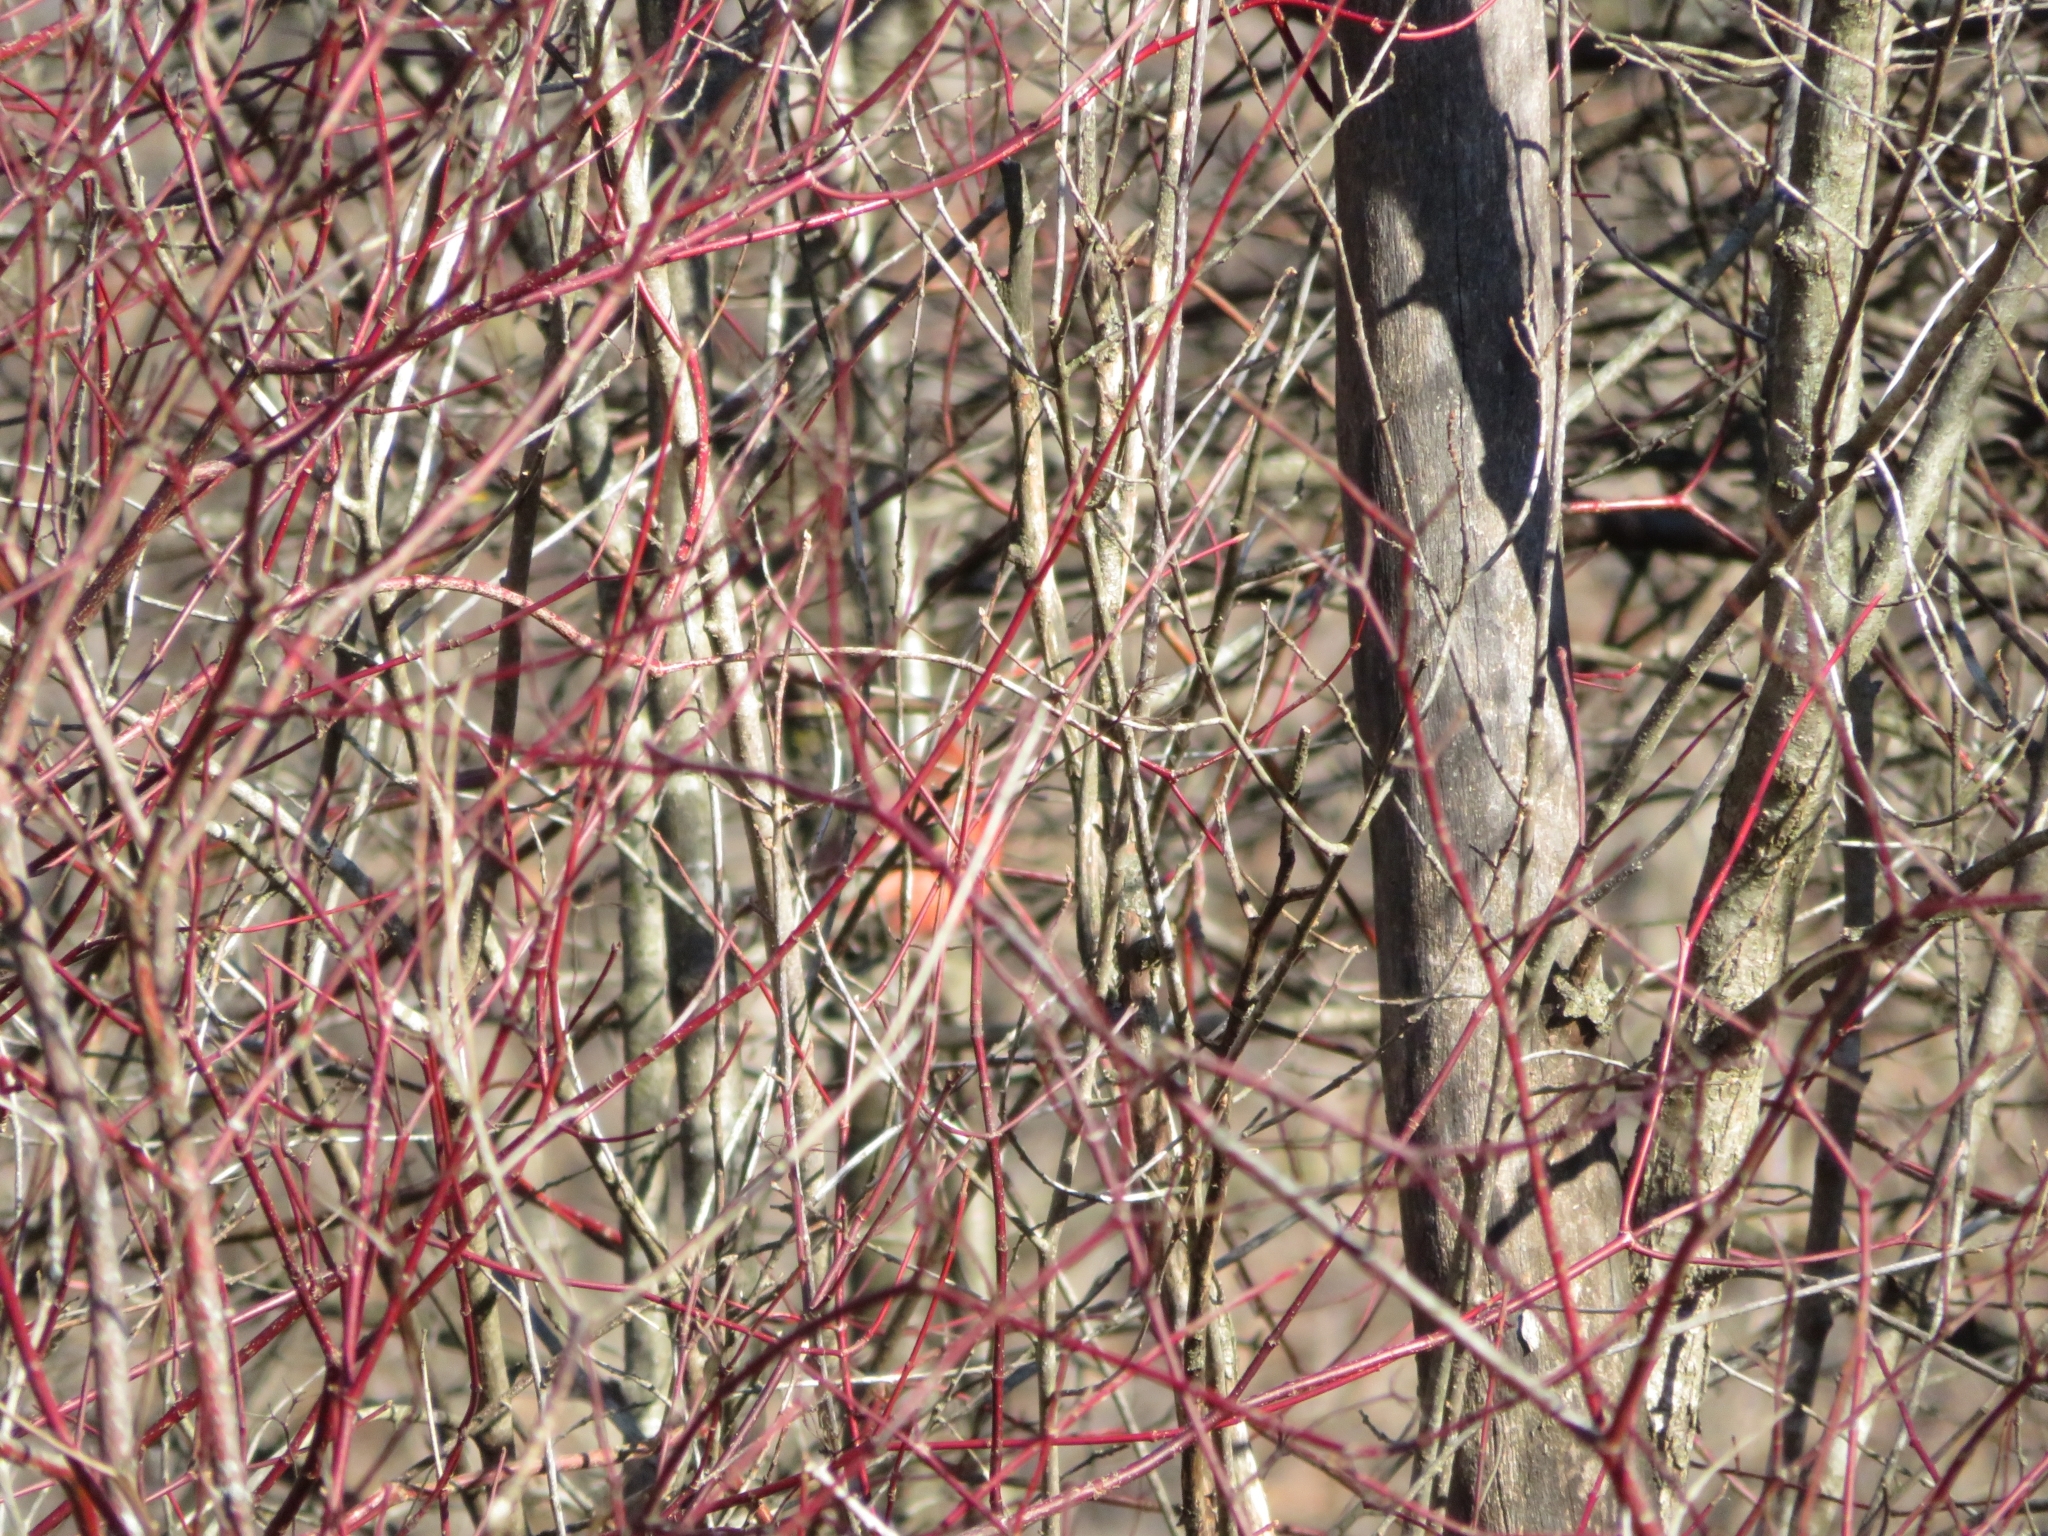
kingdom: Plantae
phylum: Tracheophyta
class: Magnoliopsida
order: Cornales
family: Cornaceae
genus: Cornus
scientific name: Cornus sericea
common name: Red-osier dogwood
